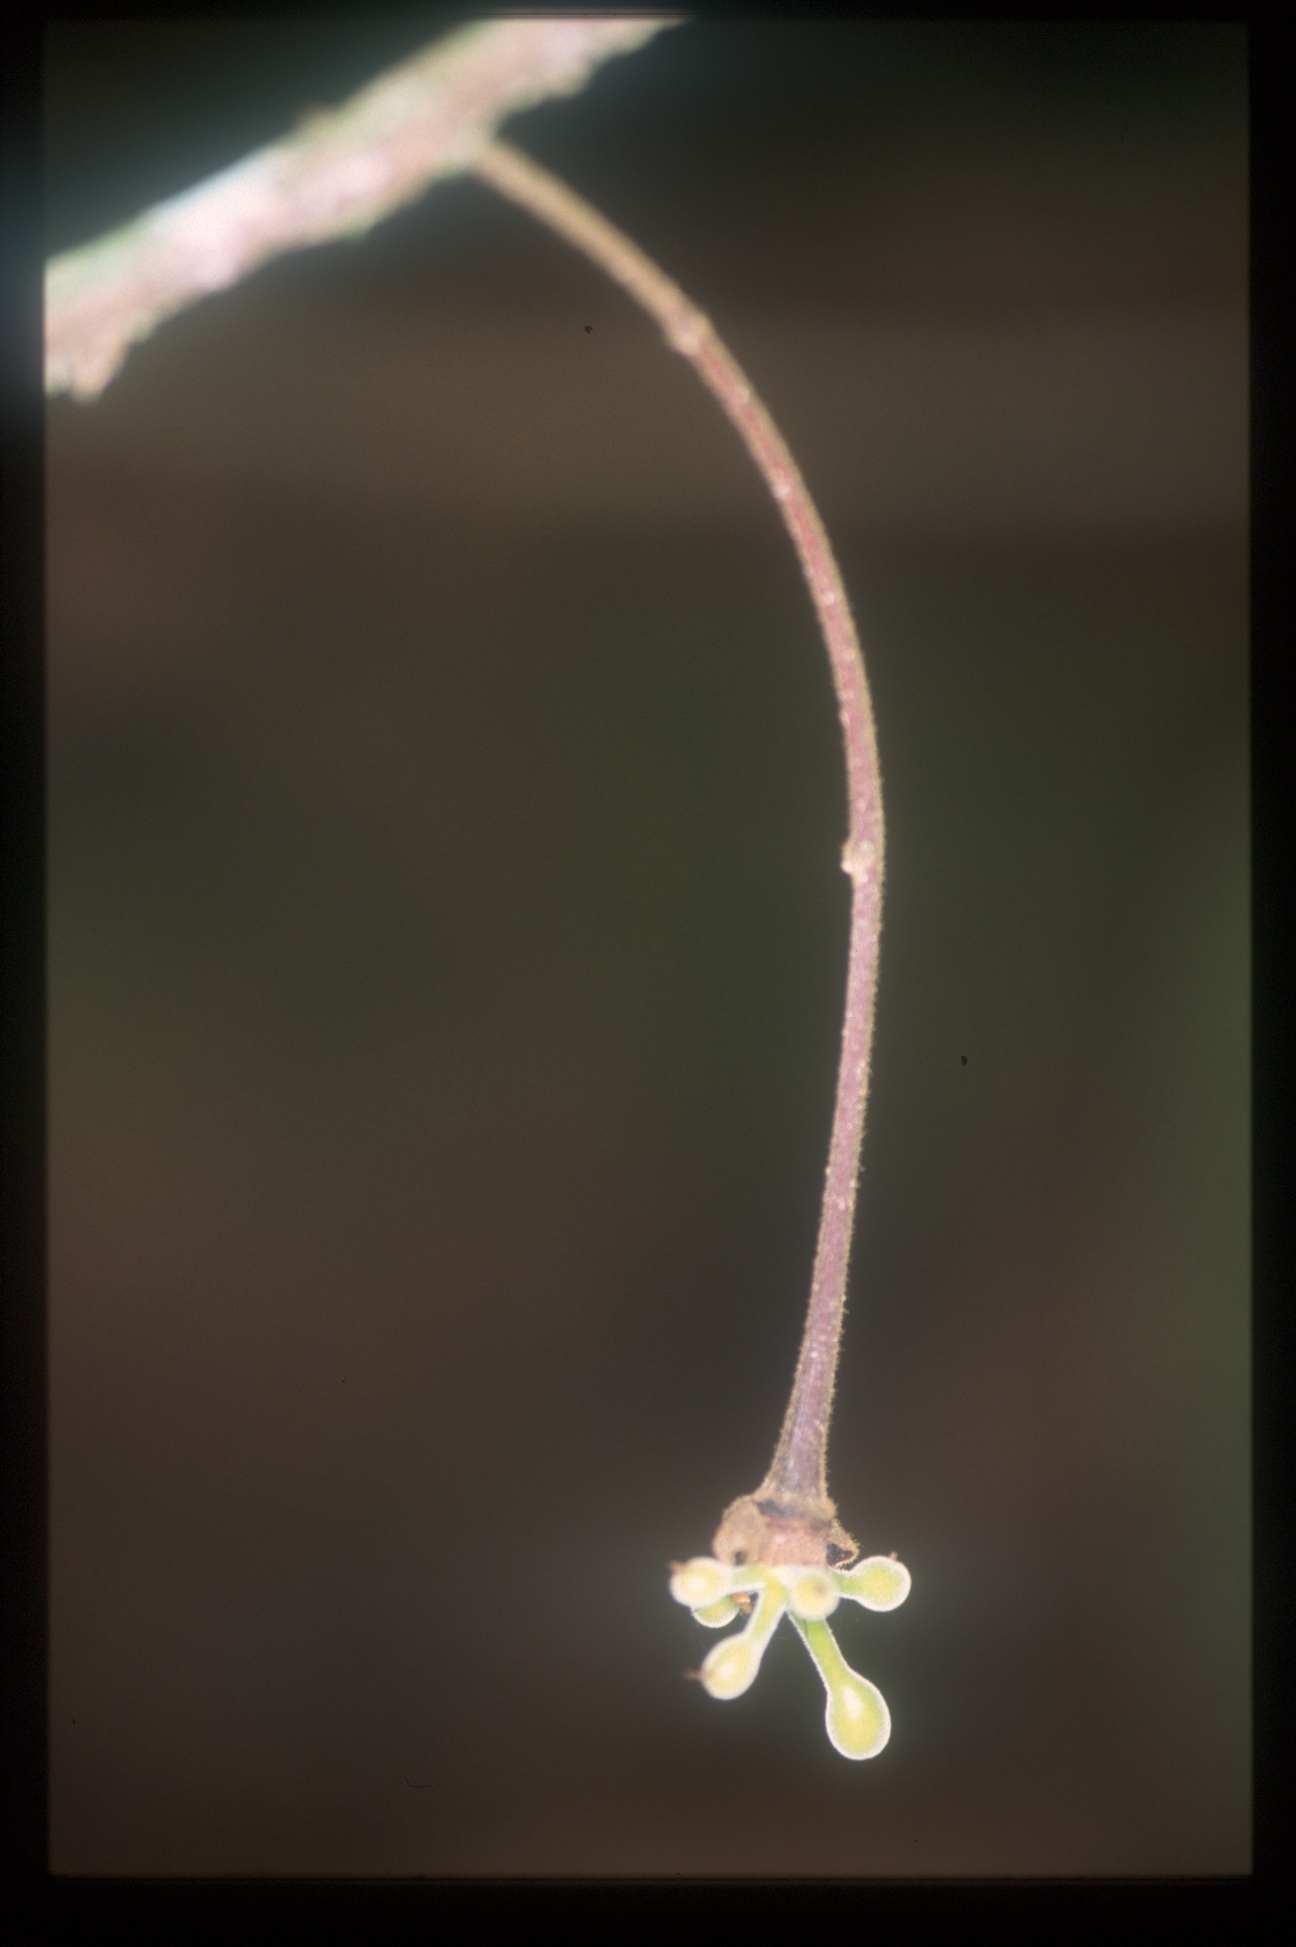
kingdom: Plantae
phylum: Tracheophyta
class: Magnoliopsida
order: Magnoliales
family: Annonaceae
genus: Cremastosperma
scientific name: Cremastosperma bullatum
